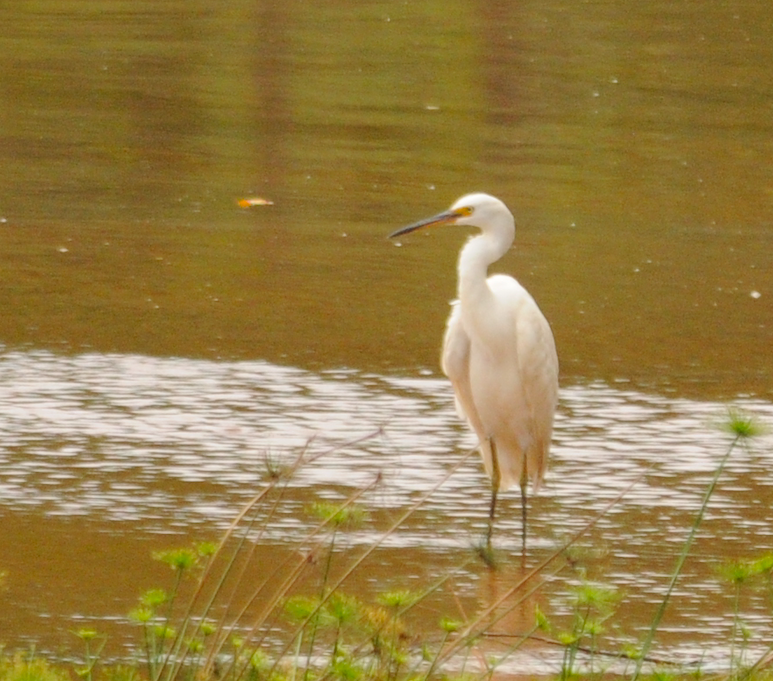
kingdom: Animalia
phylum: Chordata
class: Aves
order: Pelecaniformes
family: Ardeidae
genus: Egretta
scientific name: Egretta dimorpha
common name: Dimorphic egret
